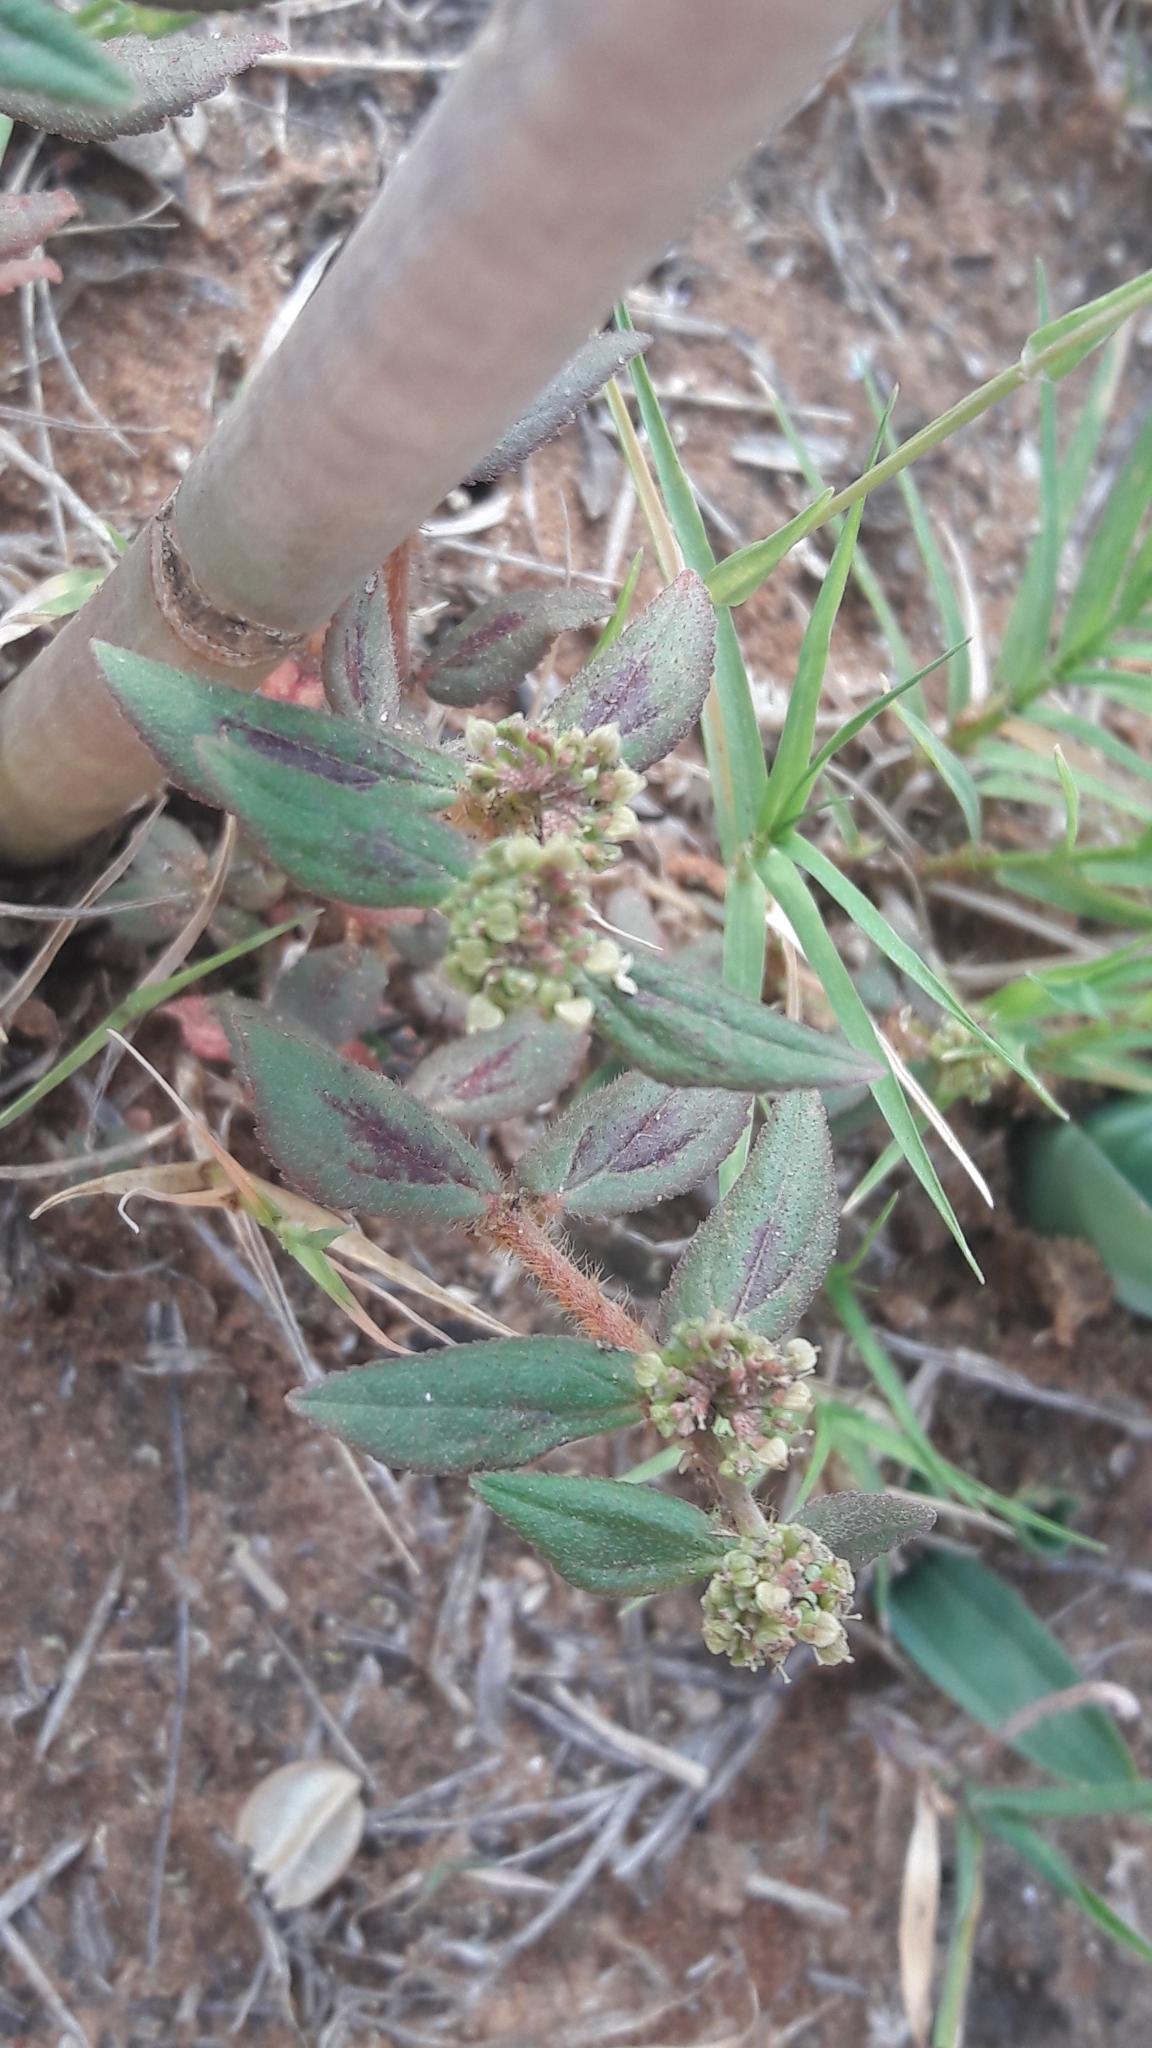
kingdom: Plantae
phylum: Tracheophyta
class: Magnoliopsida
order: Malpighiales
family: Euphorbiaceae
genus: Euphorbia
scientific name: Euphorbia hirta
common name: Pillpod sandmat
